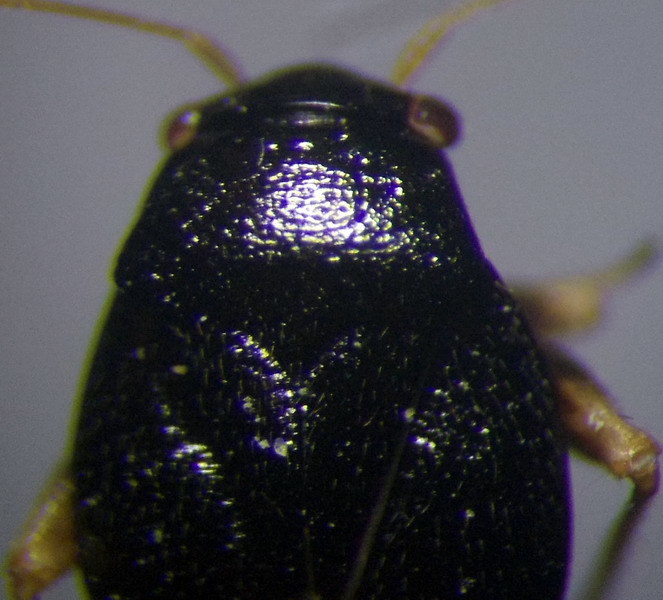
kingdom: Animalia
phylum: Arthropoda
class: Insecta
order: Hemiptera
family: Miridae
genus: Halticus
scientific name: Halticus pusillus
